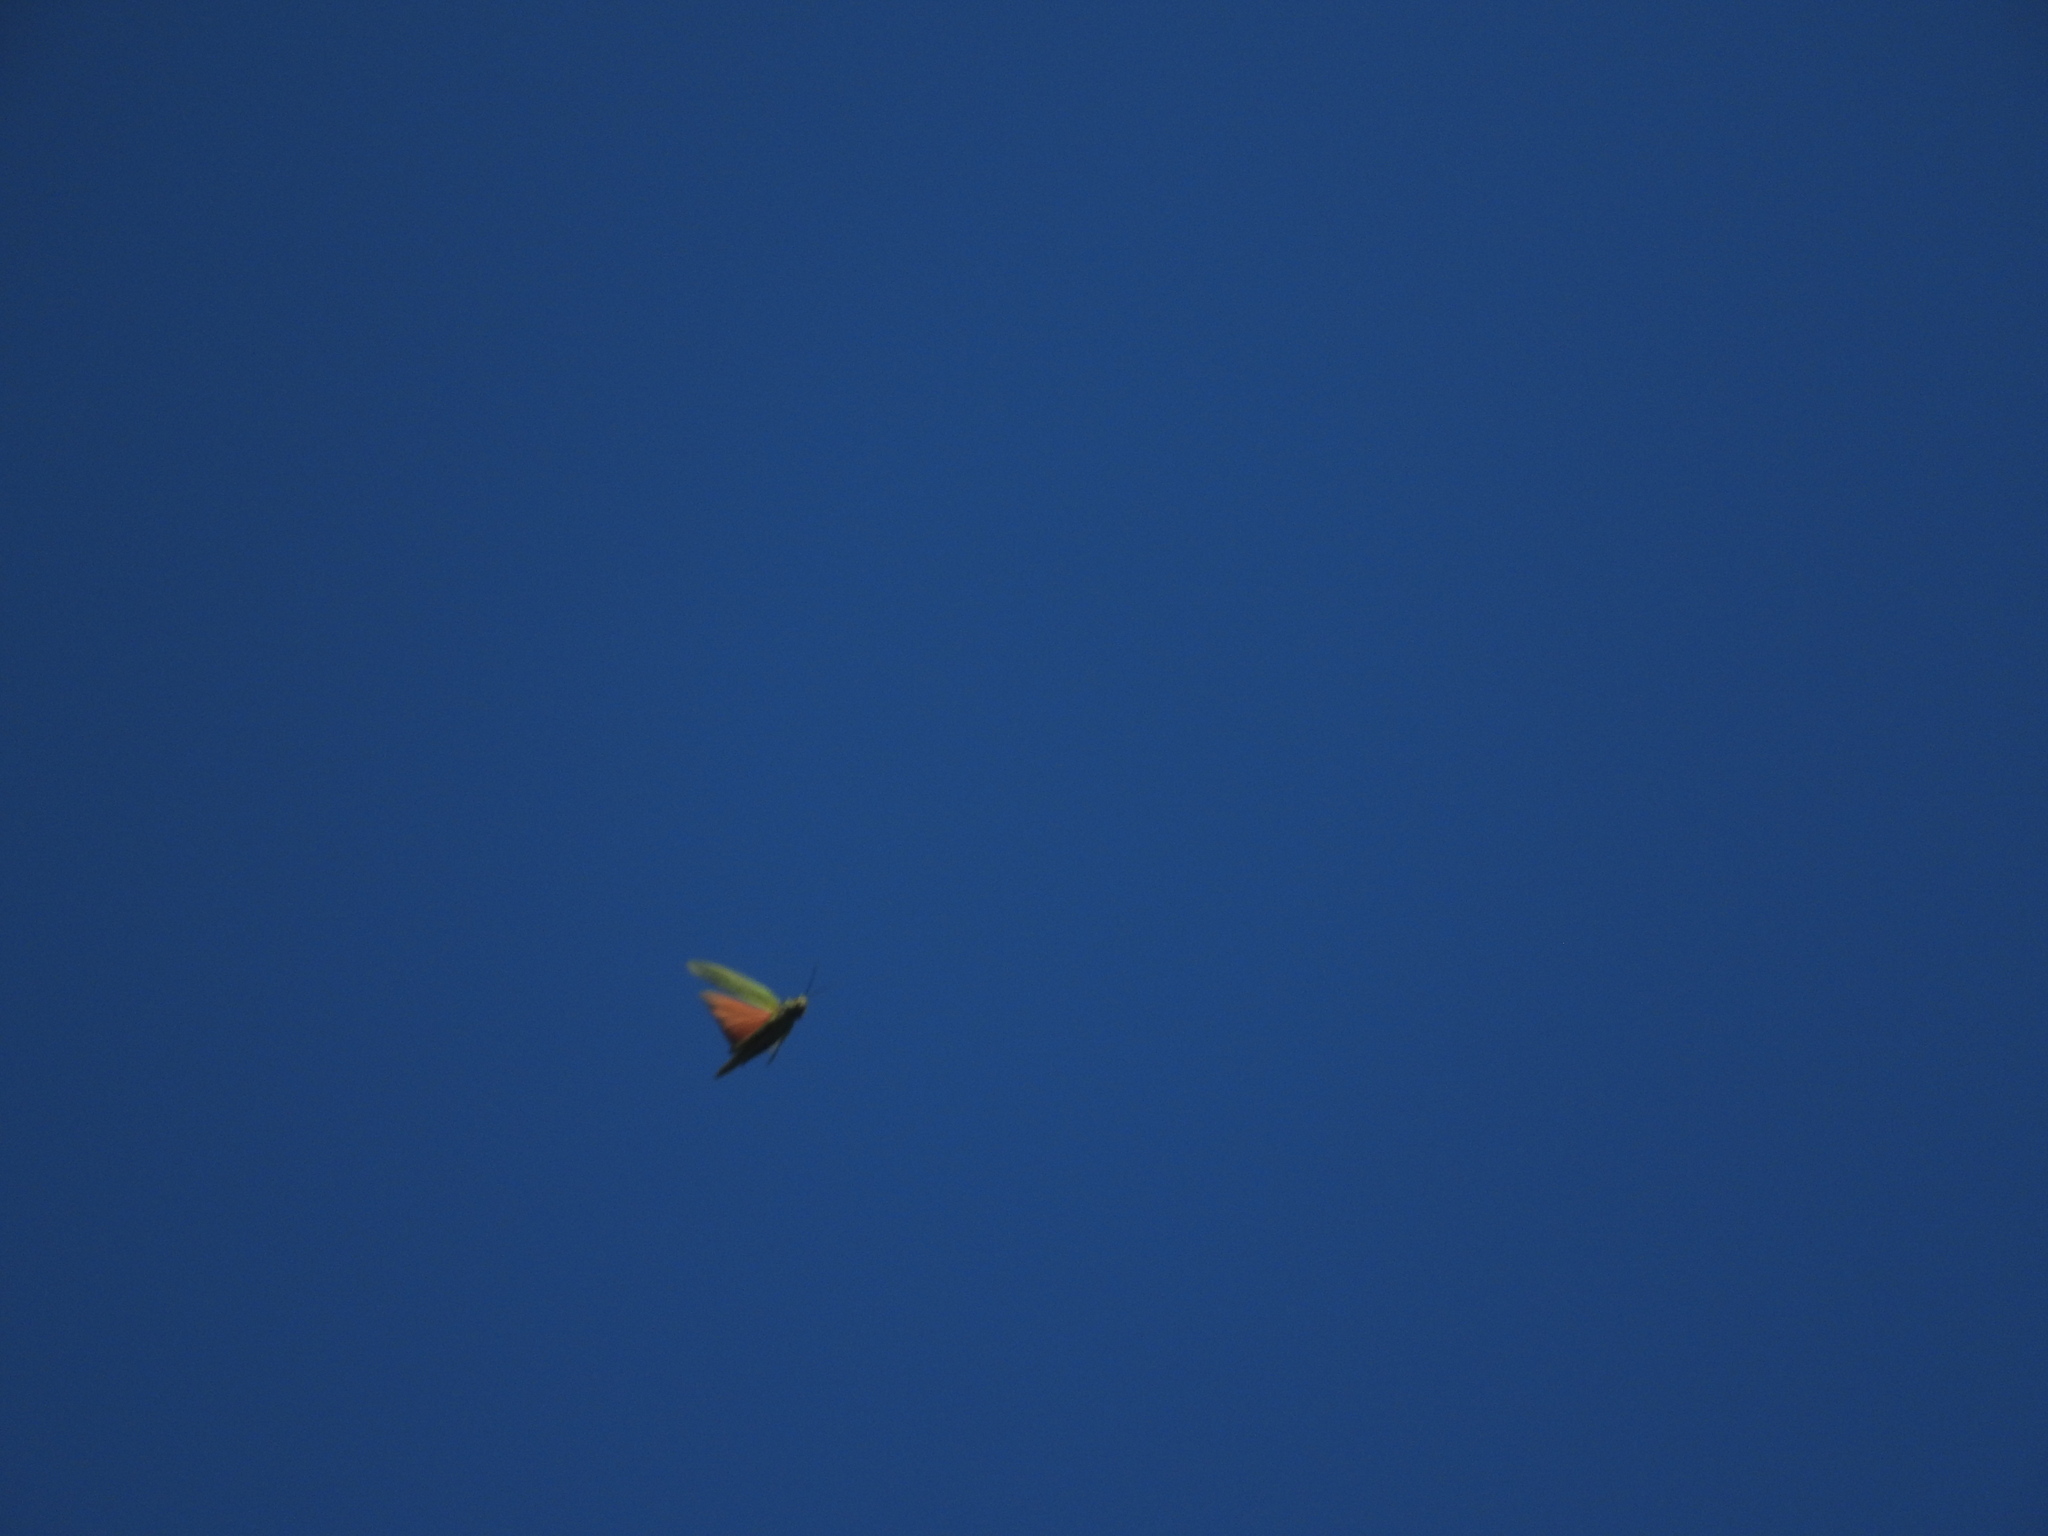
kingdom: Animalia
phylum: Arthropoda
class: Insecta
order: Orthoptera
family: Romaleidae
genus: Tropidacris
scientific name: Tropidacris cristata
